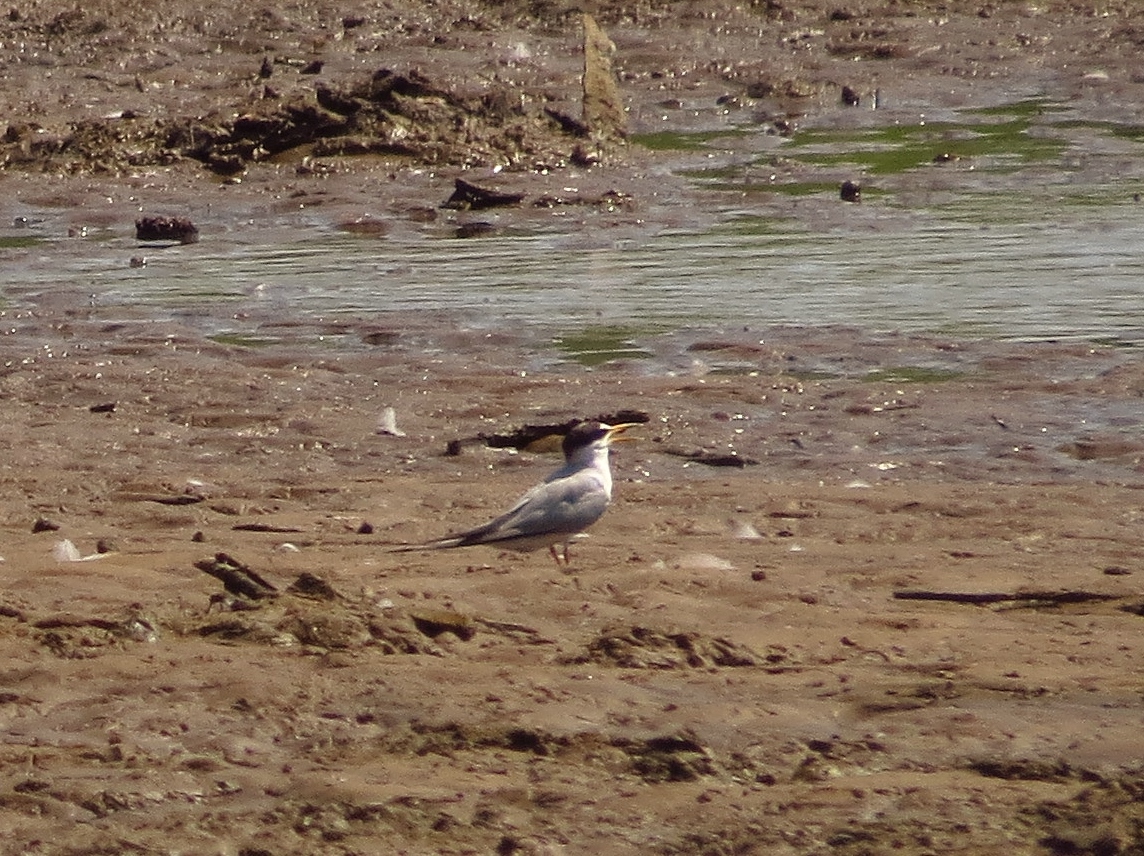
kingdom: Animalia
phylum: Chordata
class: Aves
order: Charadriiformes
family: Laridae
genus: Sternula
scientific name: Sternula antillarum
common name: Least tern
